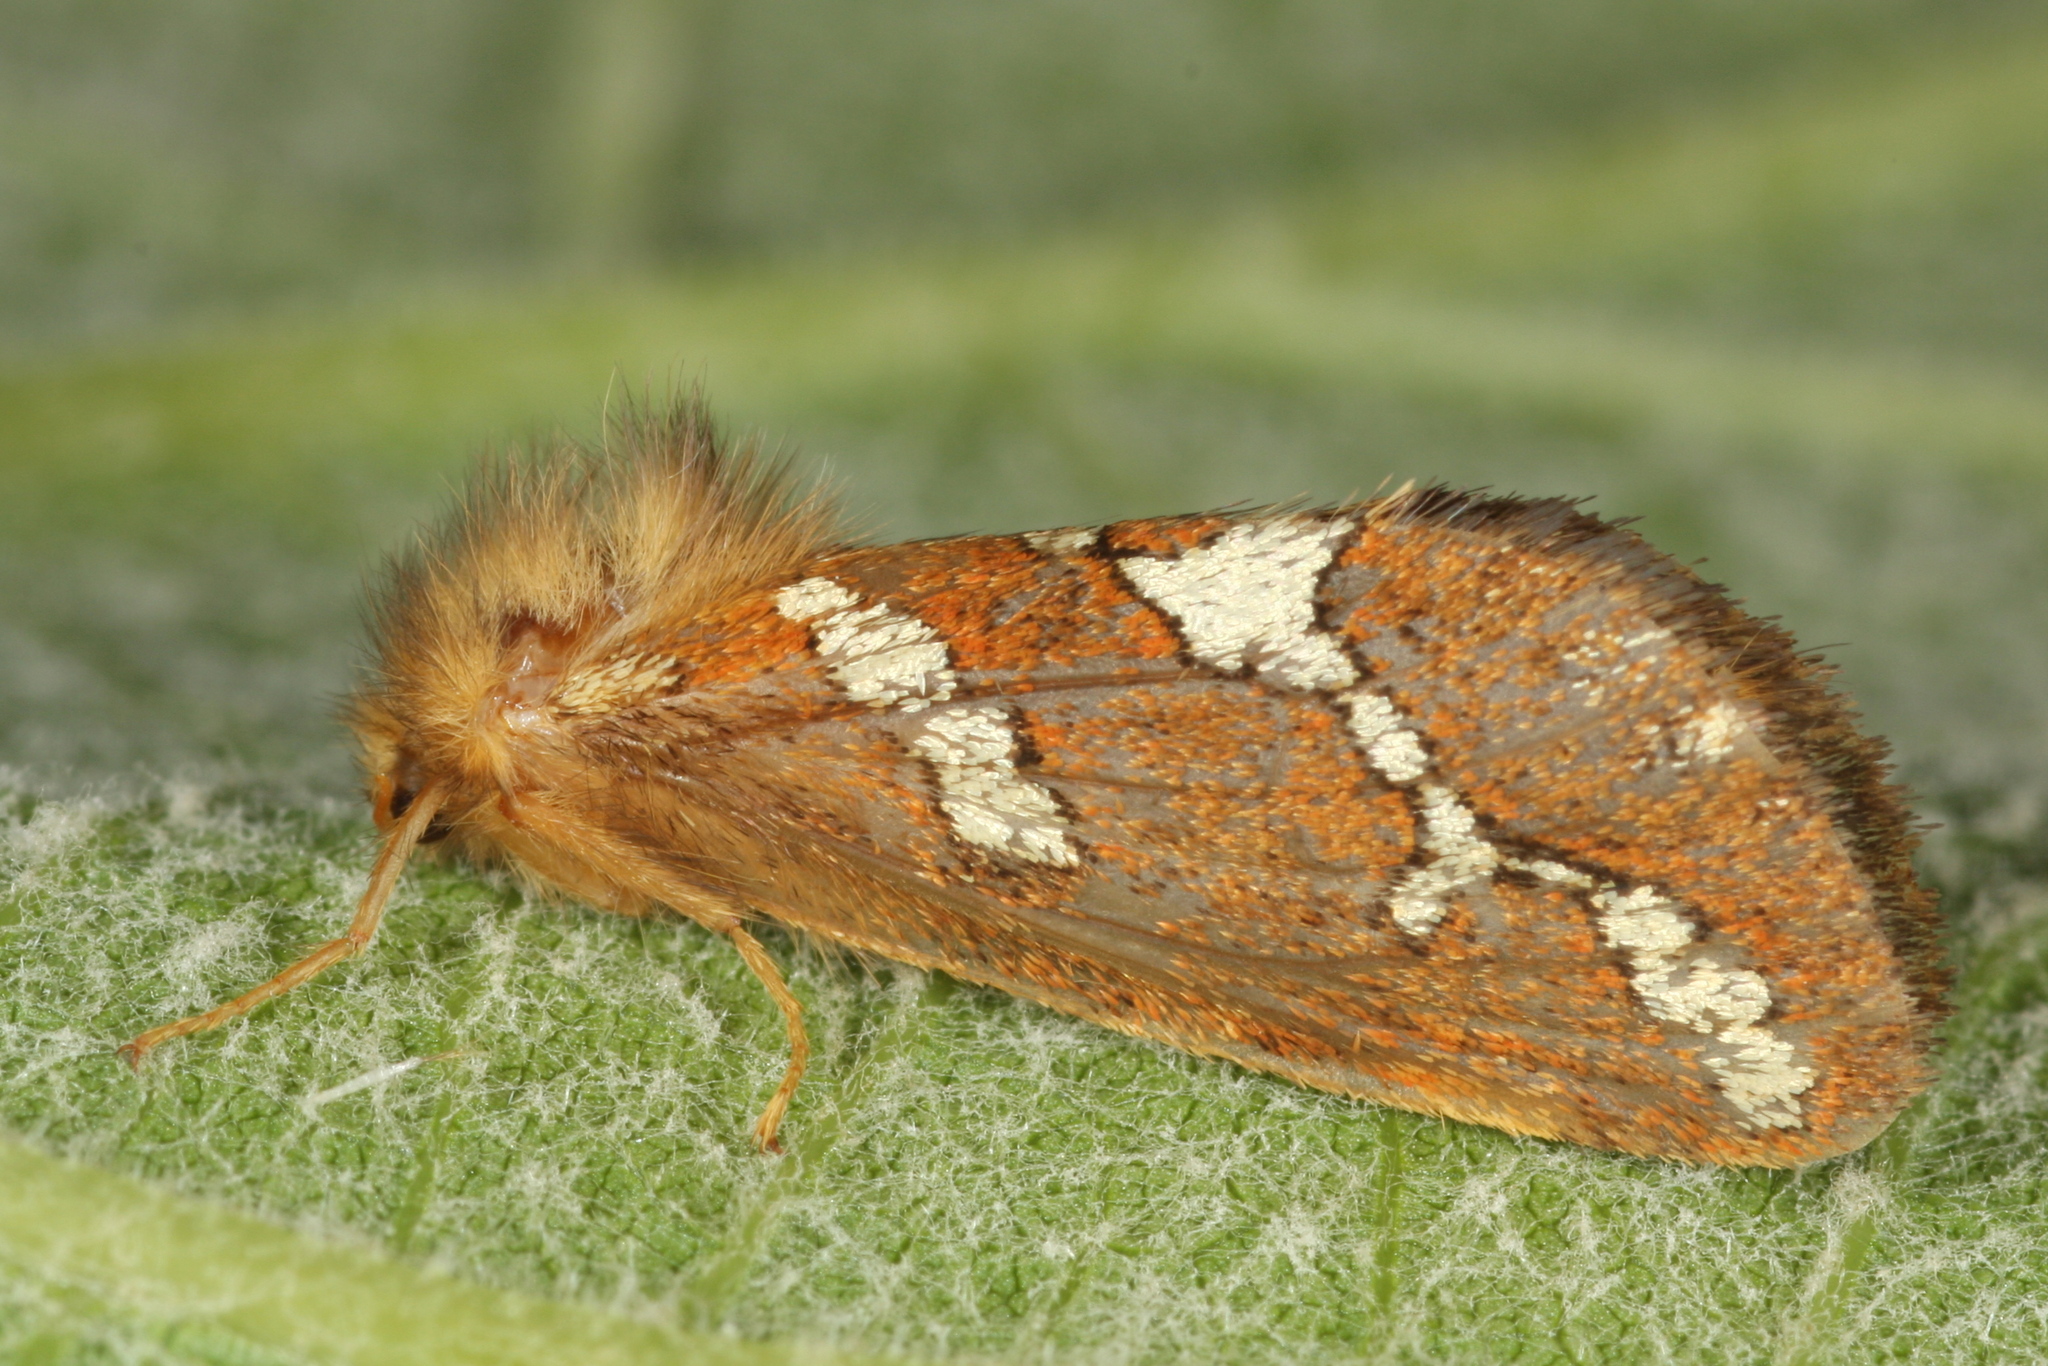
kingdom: Animalia
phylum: Arthropoda
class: Insecta
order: Lepidoptera
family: Hepialidae
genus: Phymatopus
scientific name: Phymatopus hecta
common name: Gold swift
